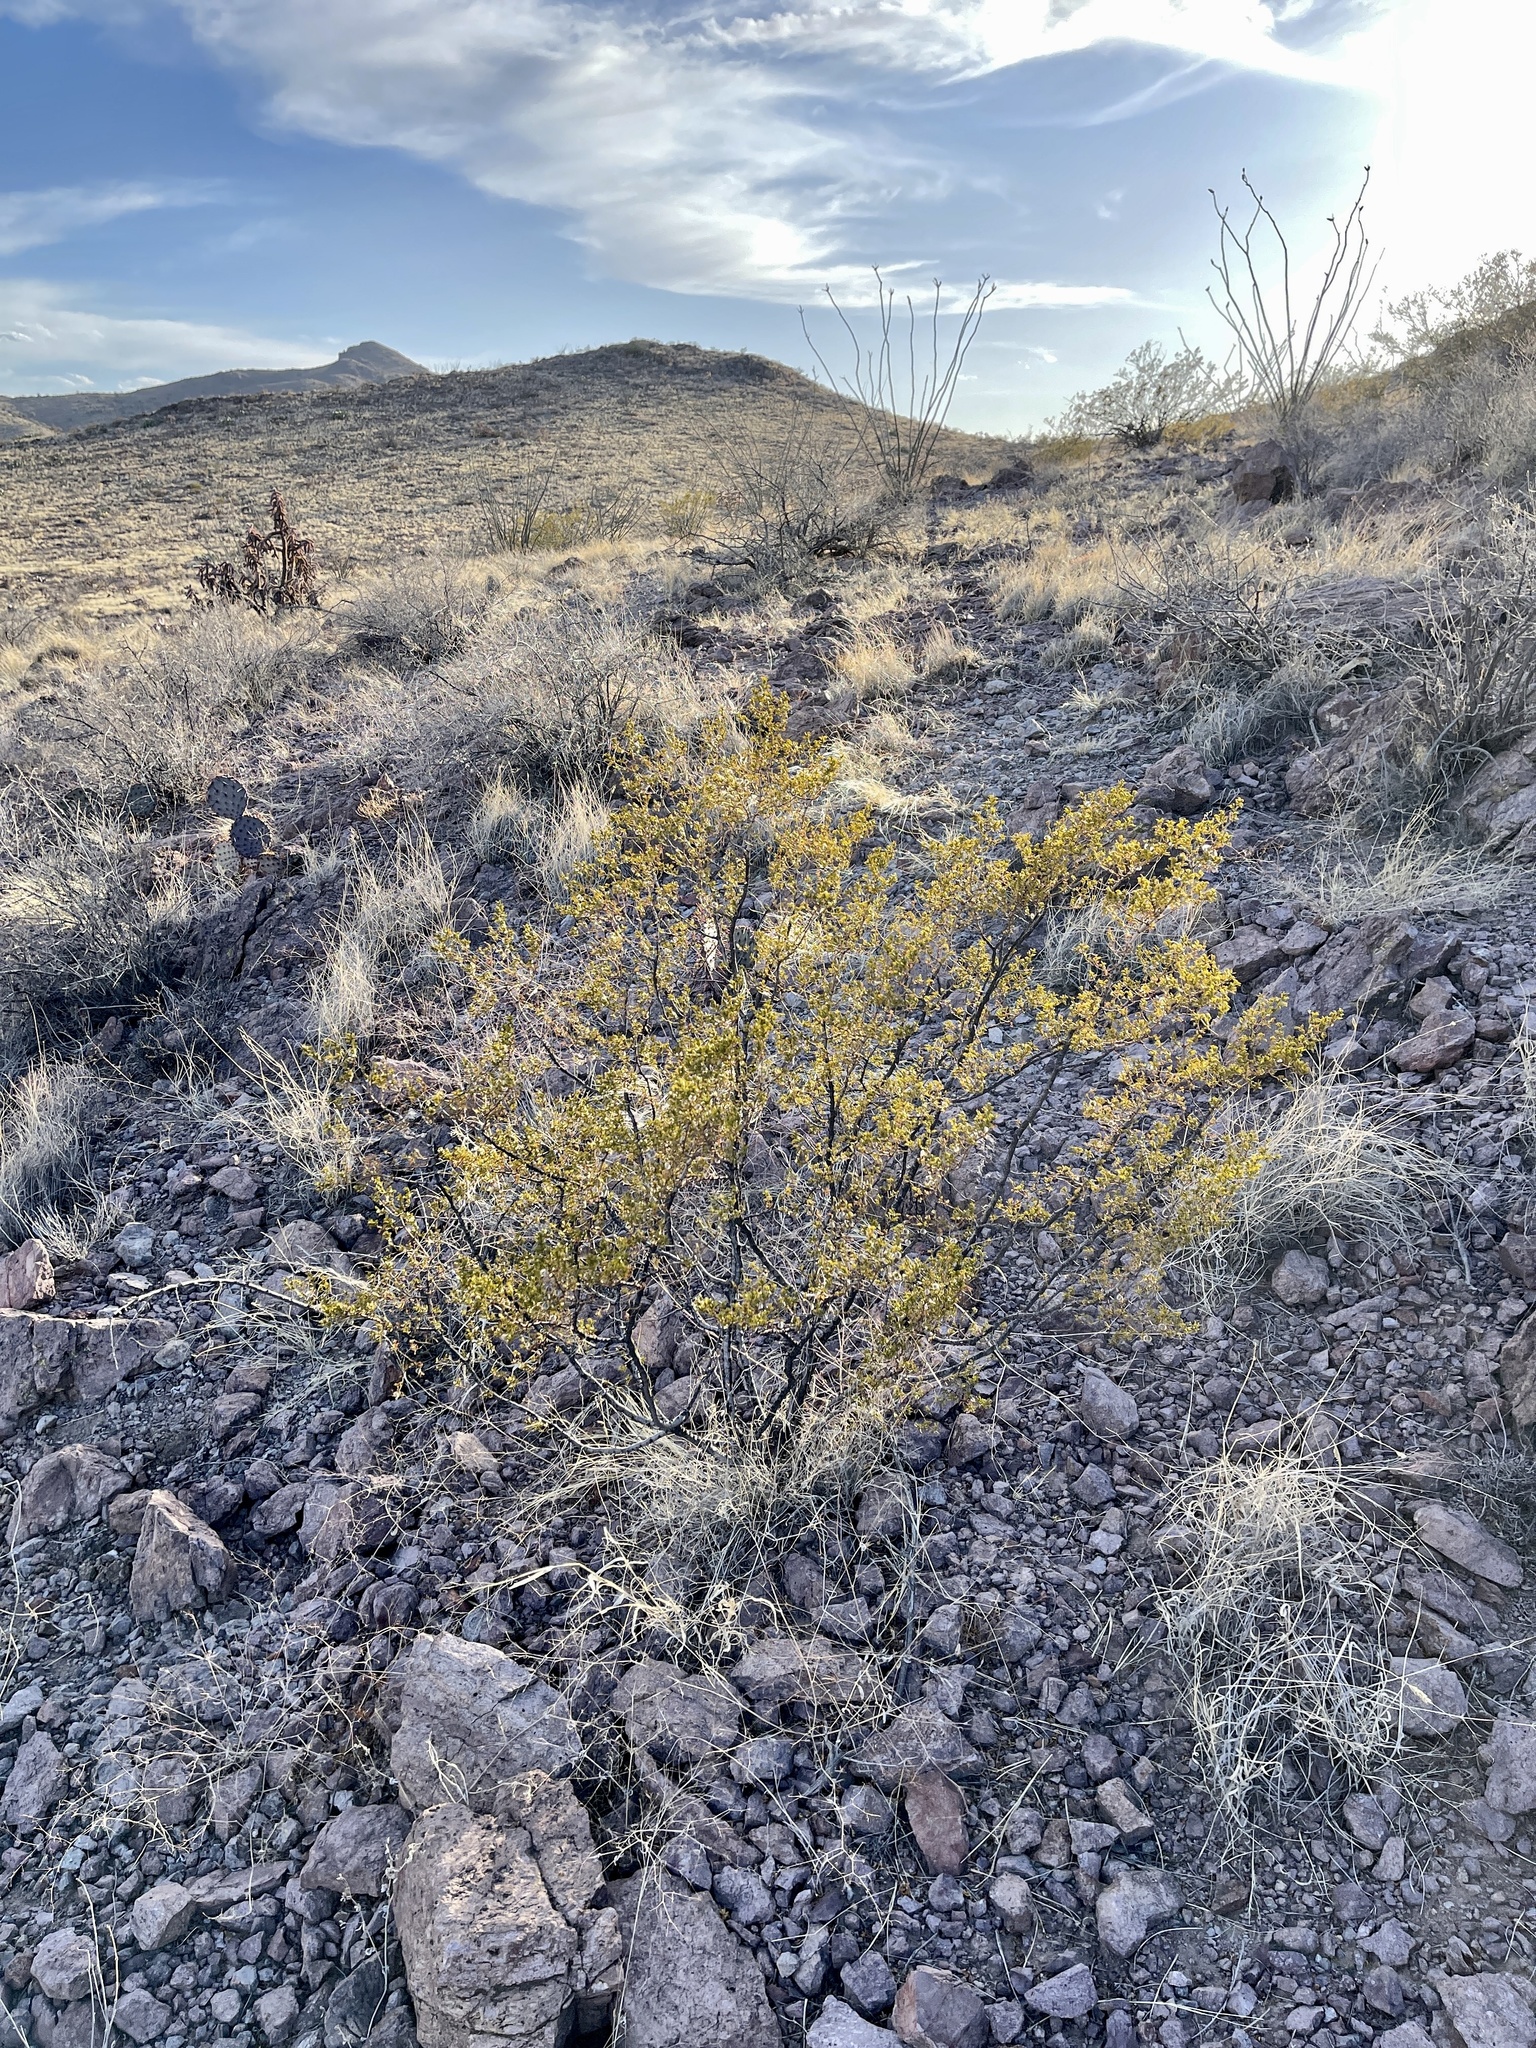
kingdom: Plantae
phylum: Tracheophyta
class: Magnoliopsida
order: Zygophyllales
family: Zygophyllaceae
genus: Larrea
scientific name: Larrea tridentata
